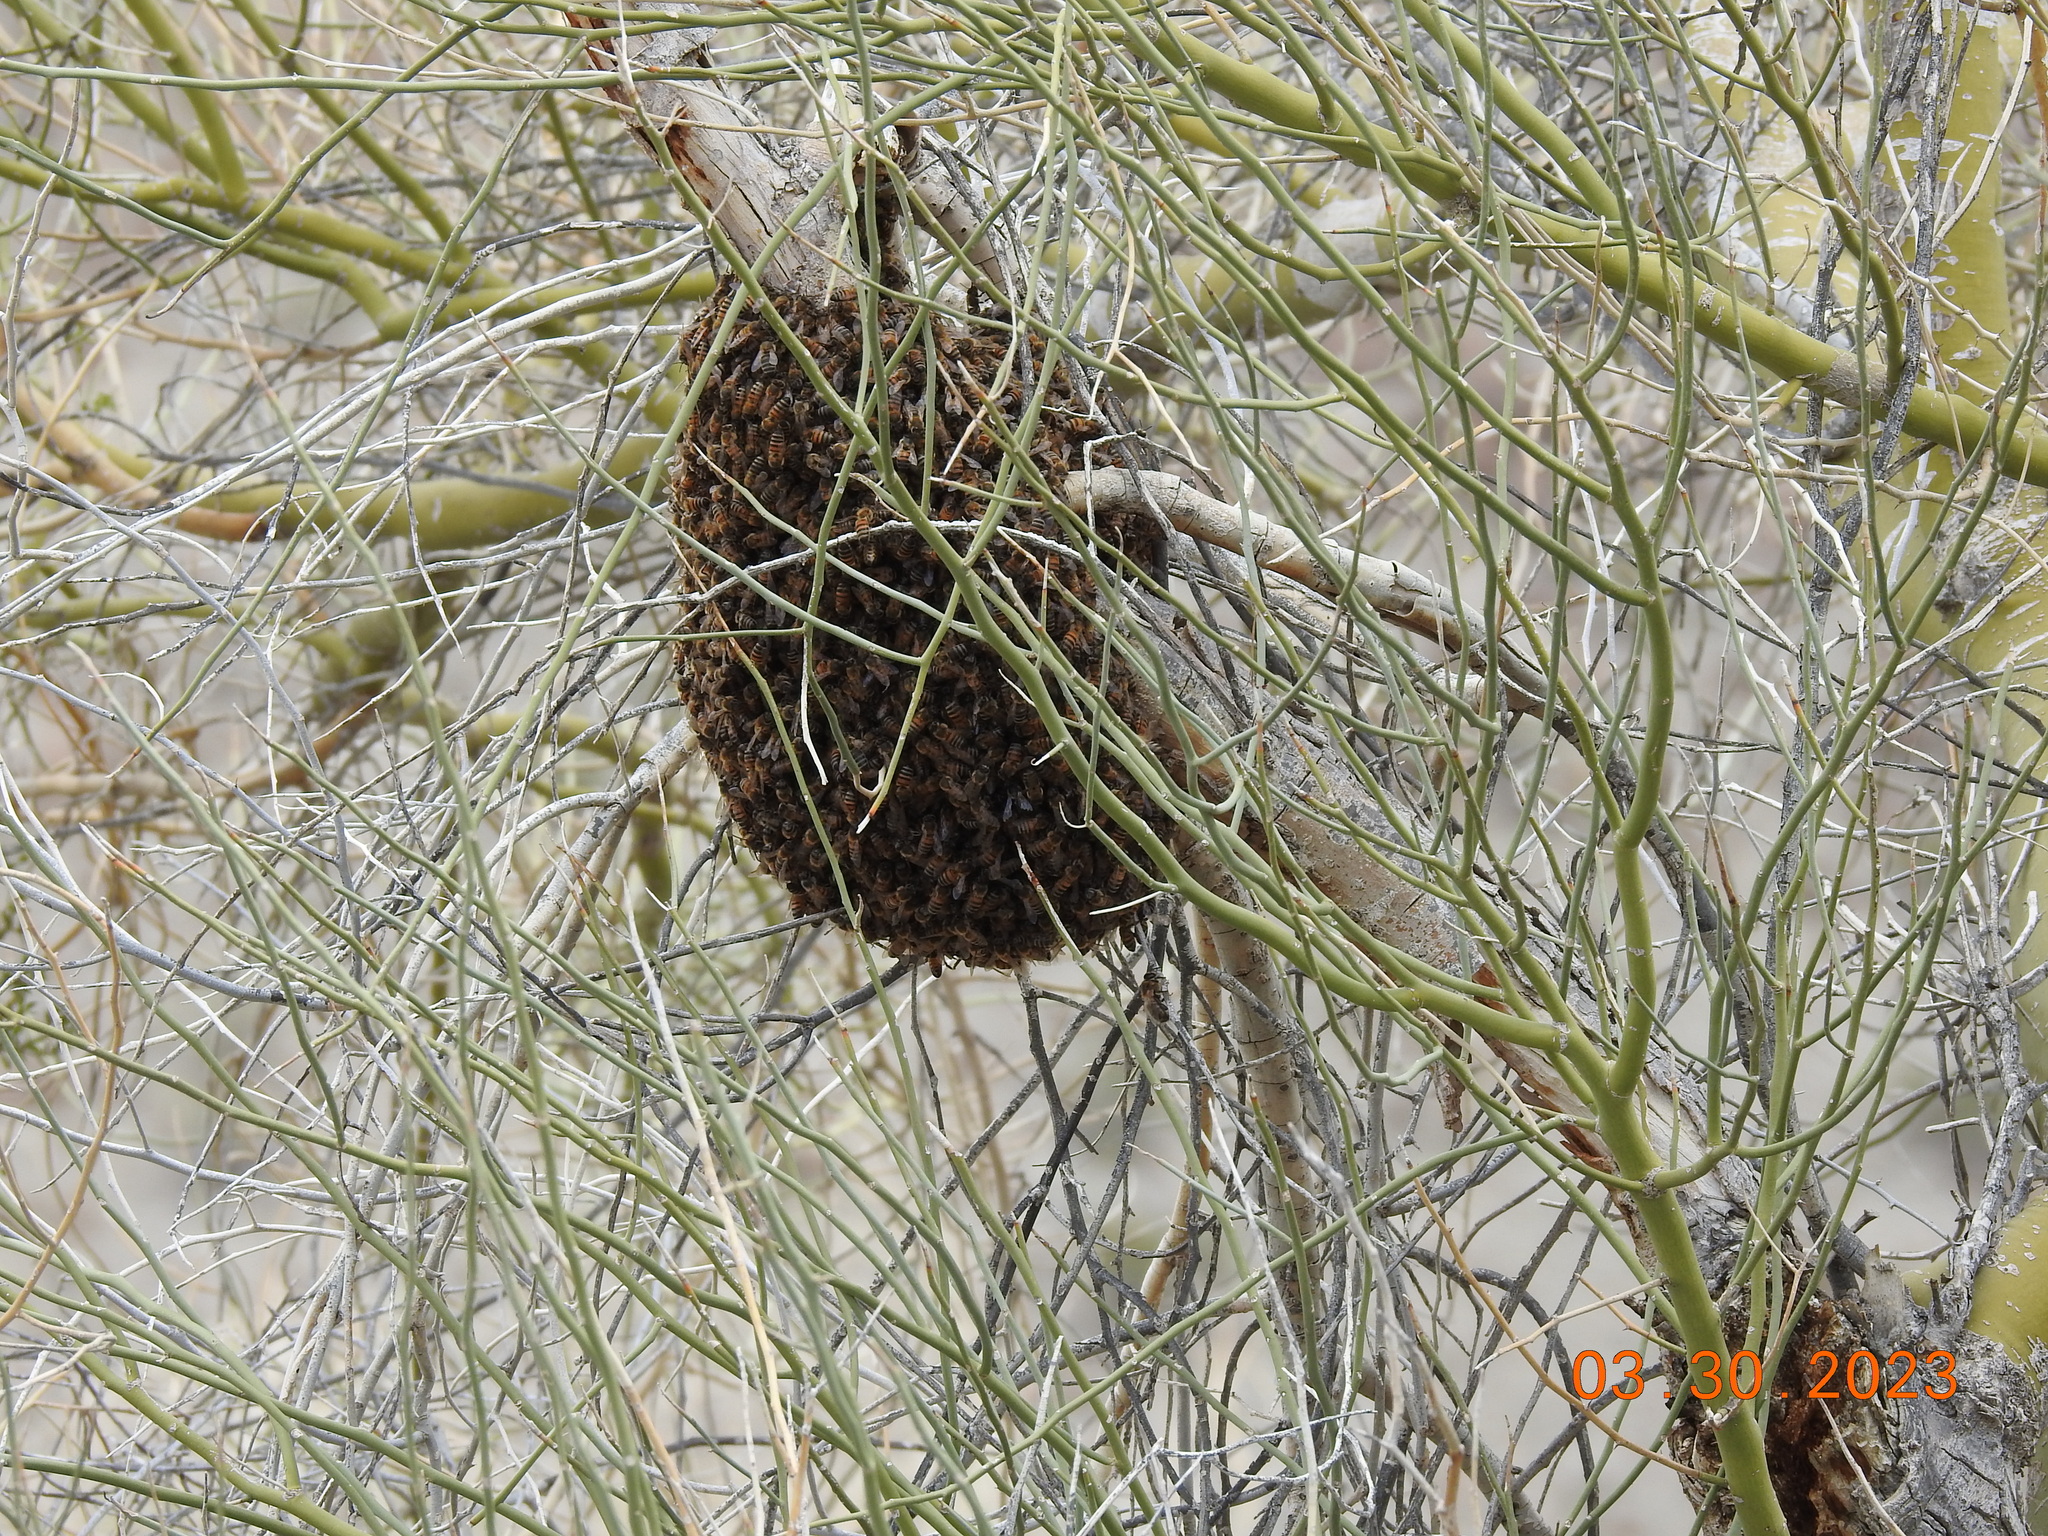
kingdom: Animalia
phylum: Arthropoda
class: Insecta
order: Hymenoptera
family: Apidae
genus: Apis
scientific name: Apis mellifera
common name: Honey bee
